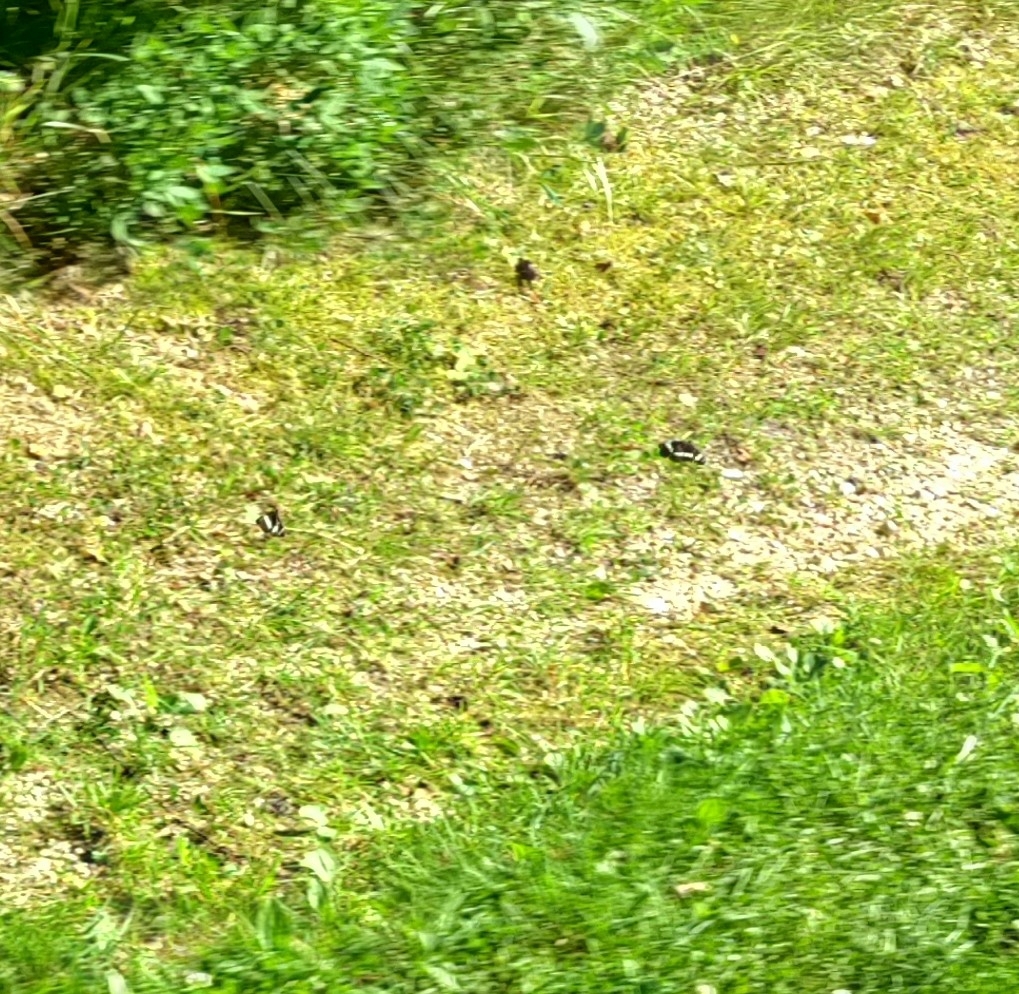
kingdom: Animalia
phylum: Arthropoda
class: Insecta
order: Lepidoptera
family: Nymphalidae
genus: Neptis
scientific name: Neptis rivularis
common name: Hungarian glider
